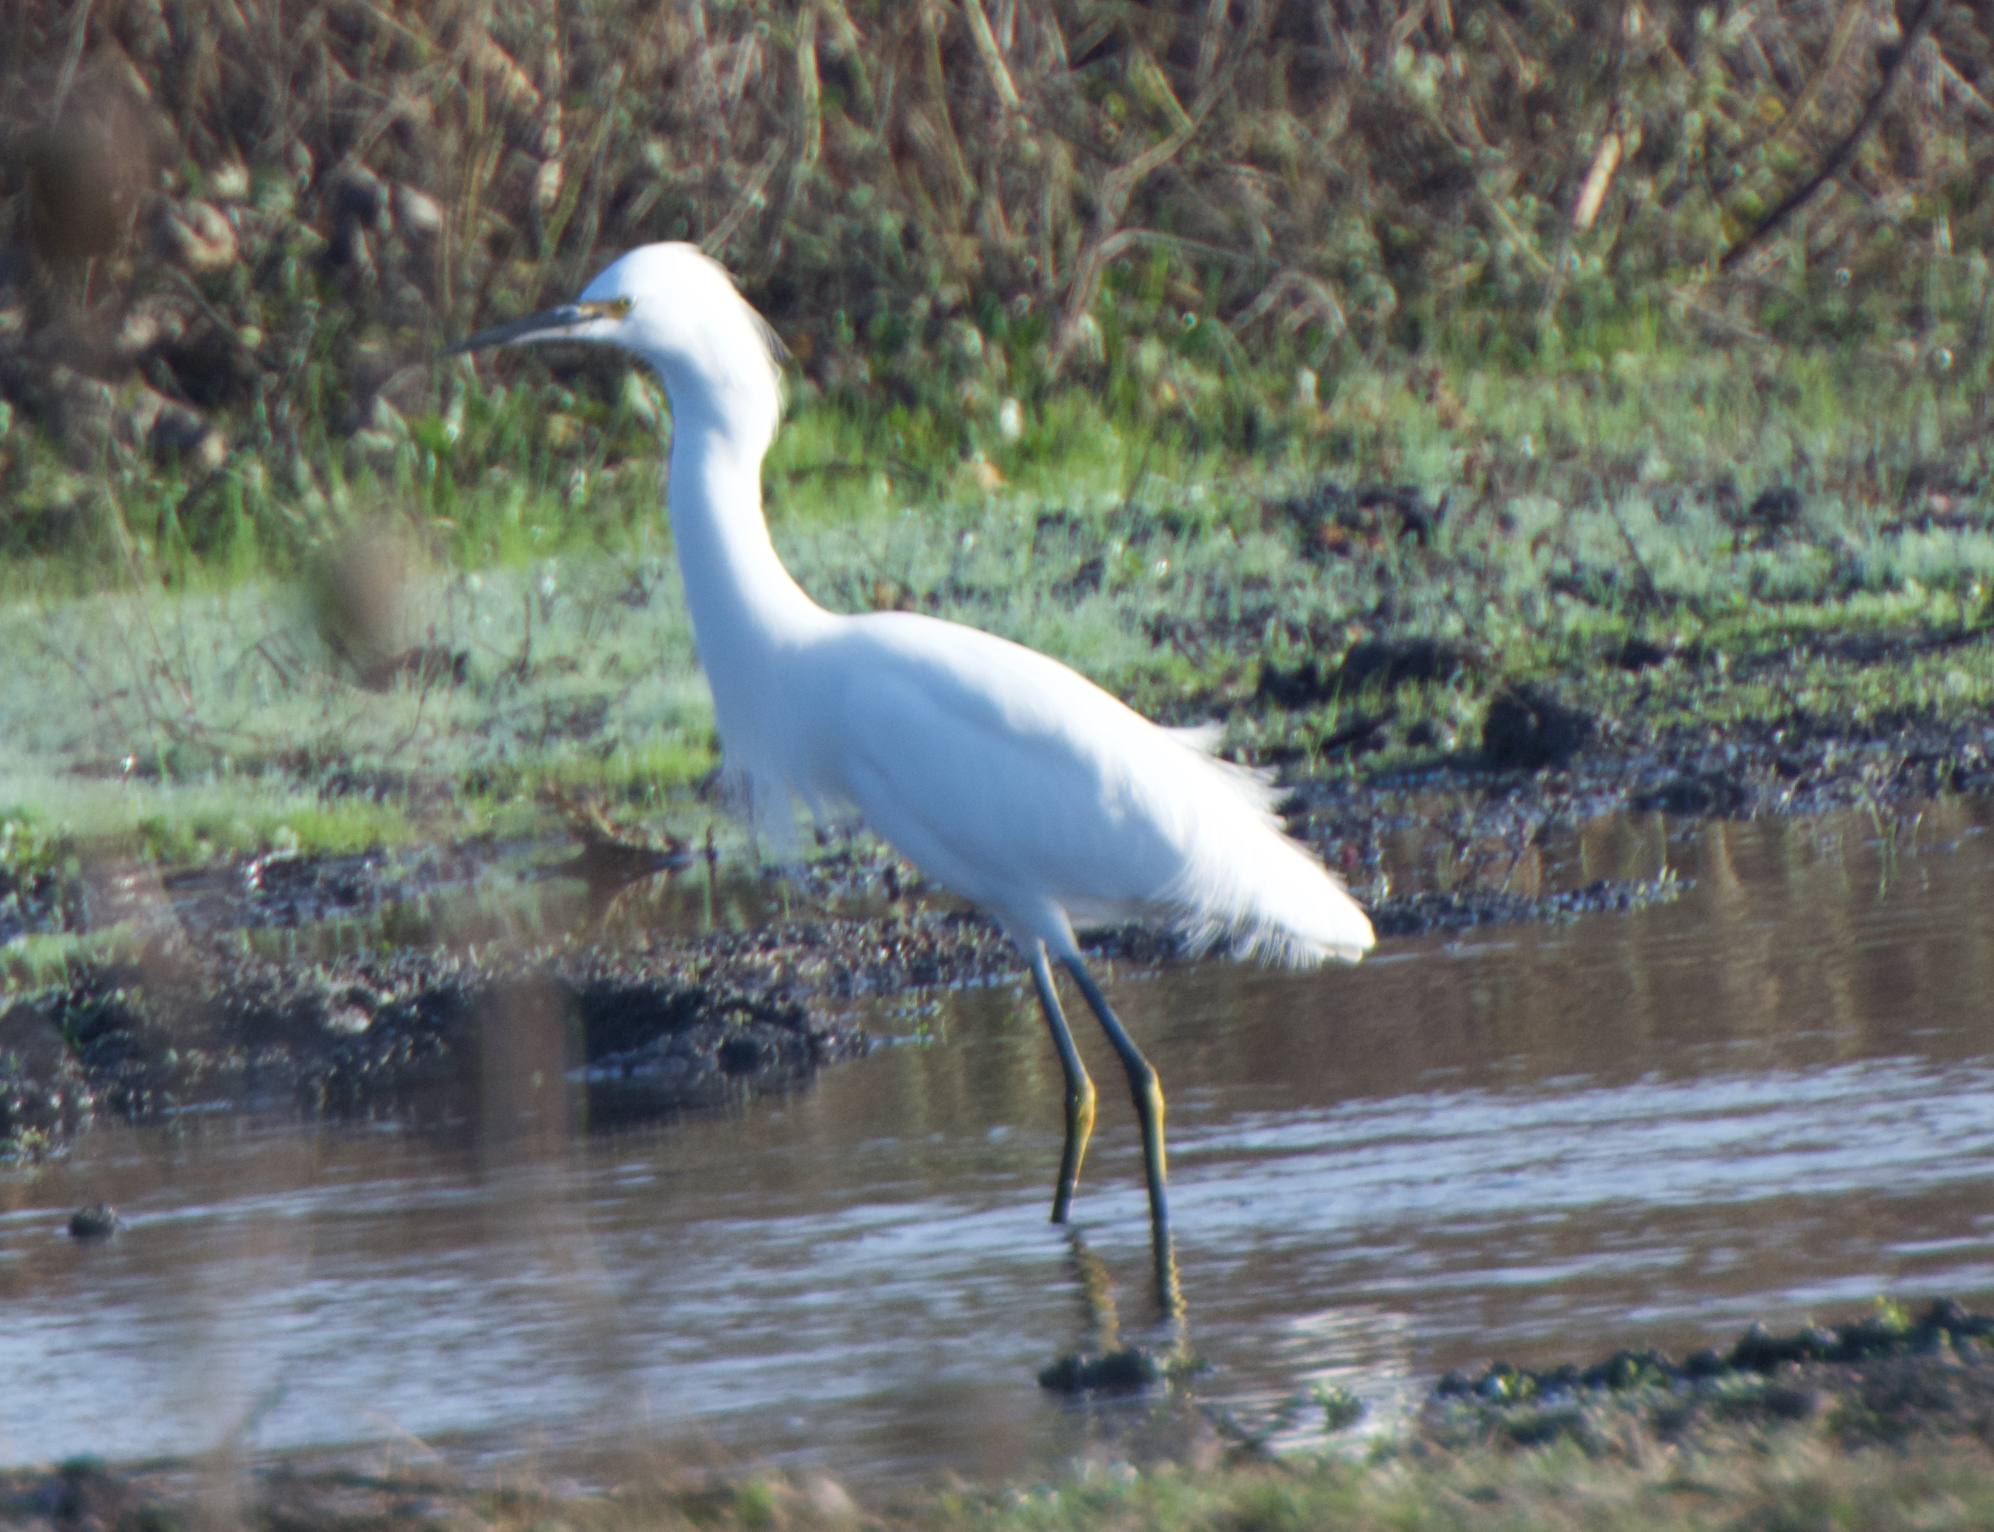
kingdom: Animalia
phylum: Chordata
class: Aves
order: Pelecaniformes
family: Ardeidae
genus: Egretta
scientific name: Egretta thula
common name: Snowy egret
